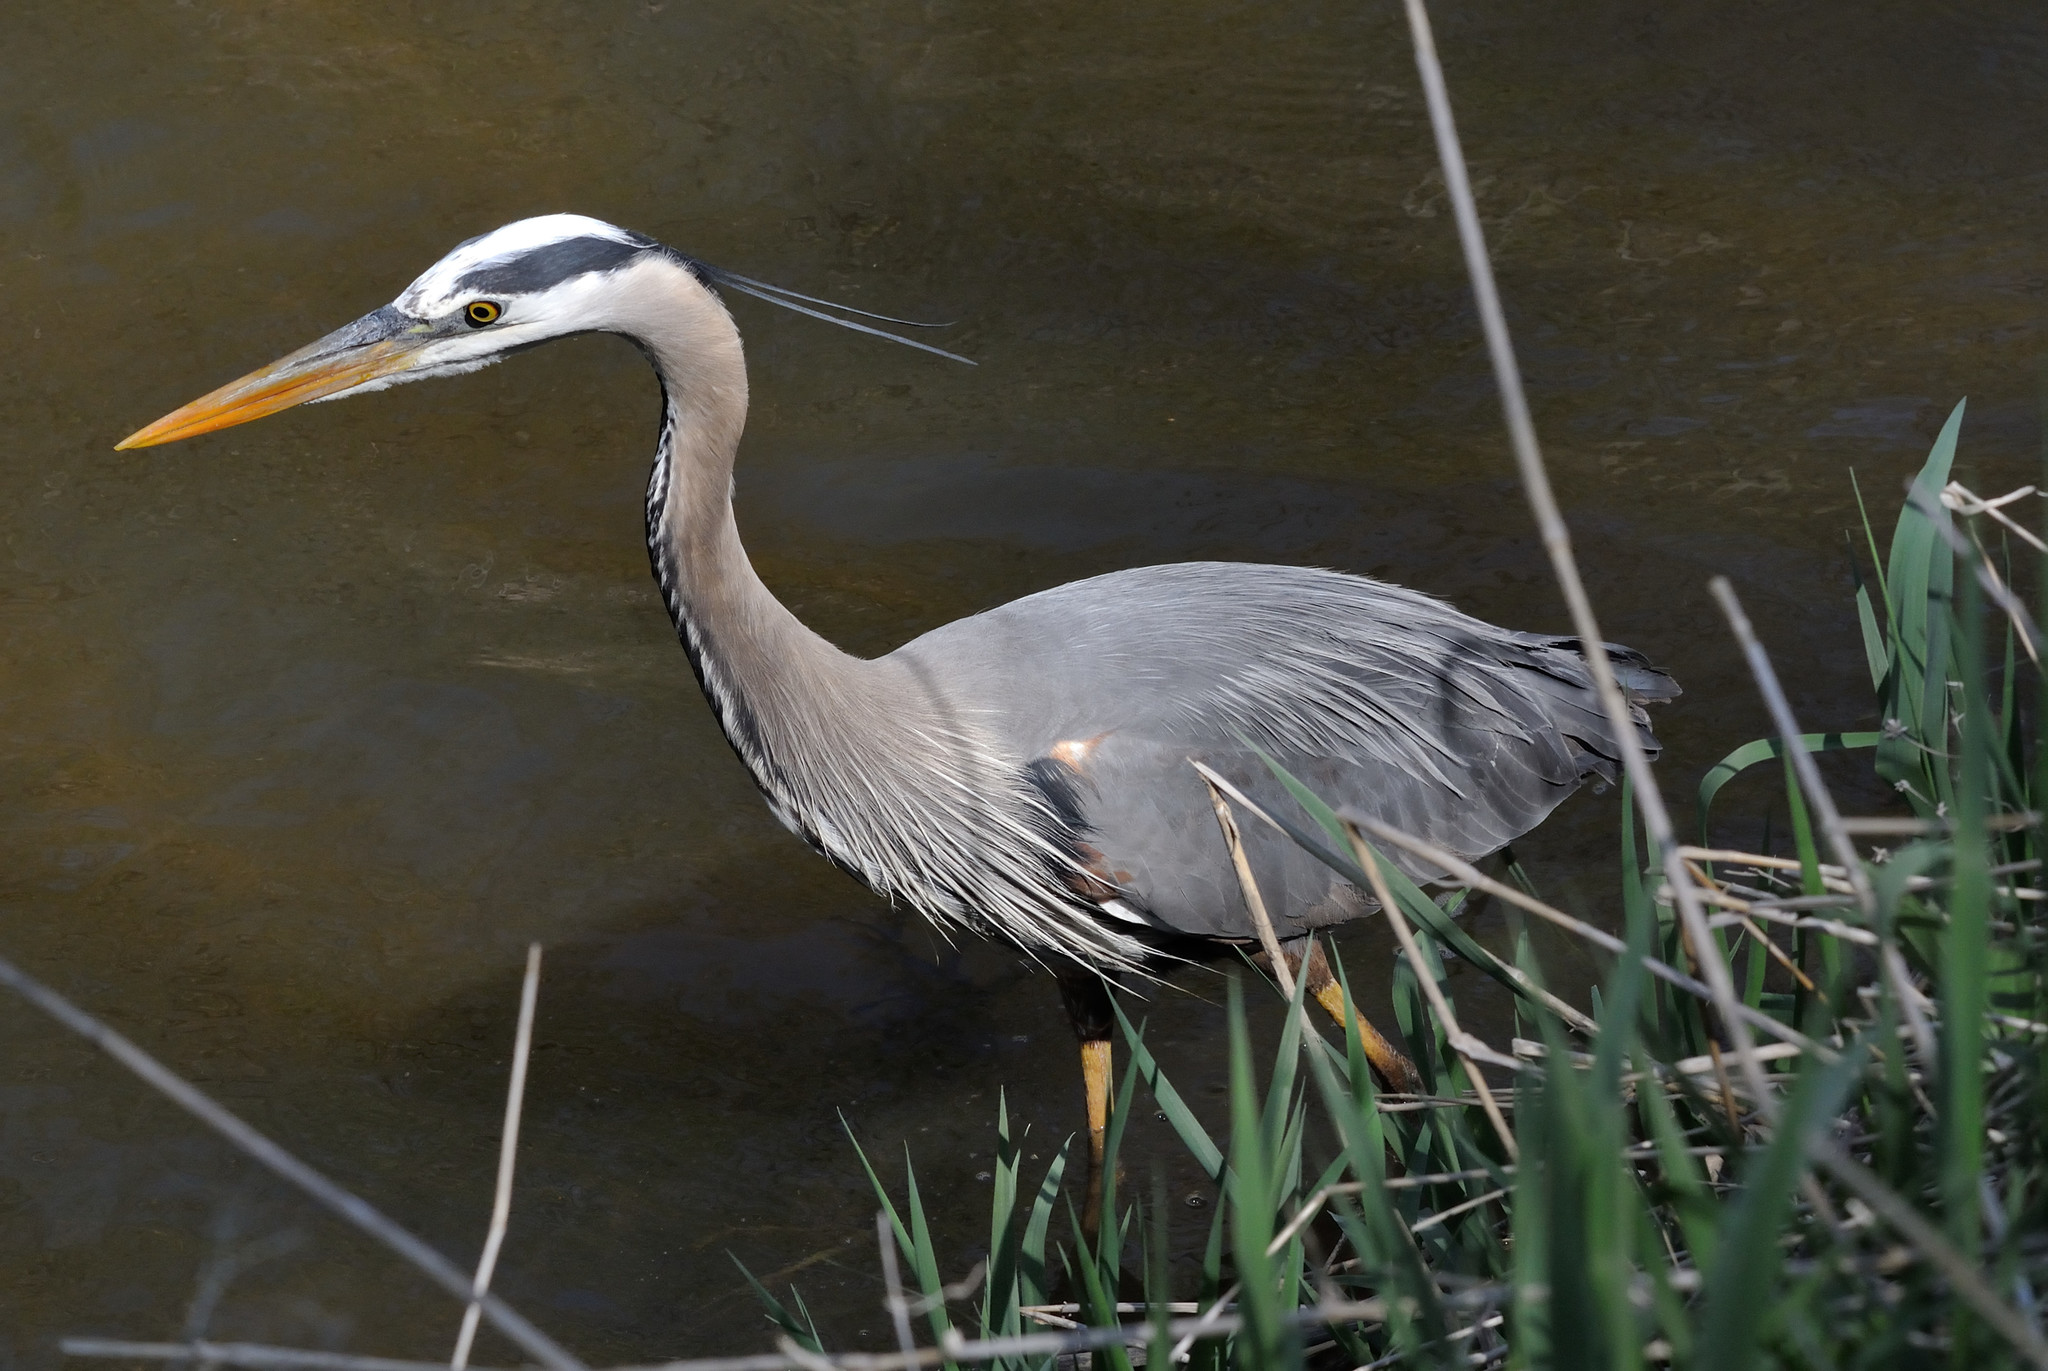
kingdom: Animalia
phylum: Chordata
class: Aves
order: Pelecaniformes
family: Ardeidae
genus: Ardea
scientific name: Ardea herodias
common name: Great blue heron
